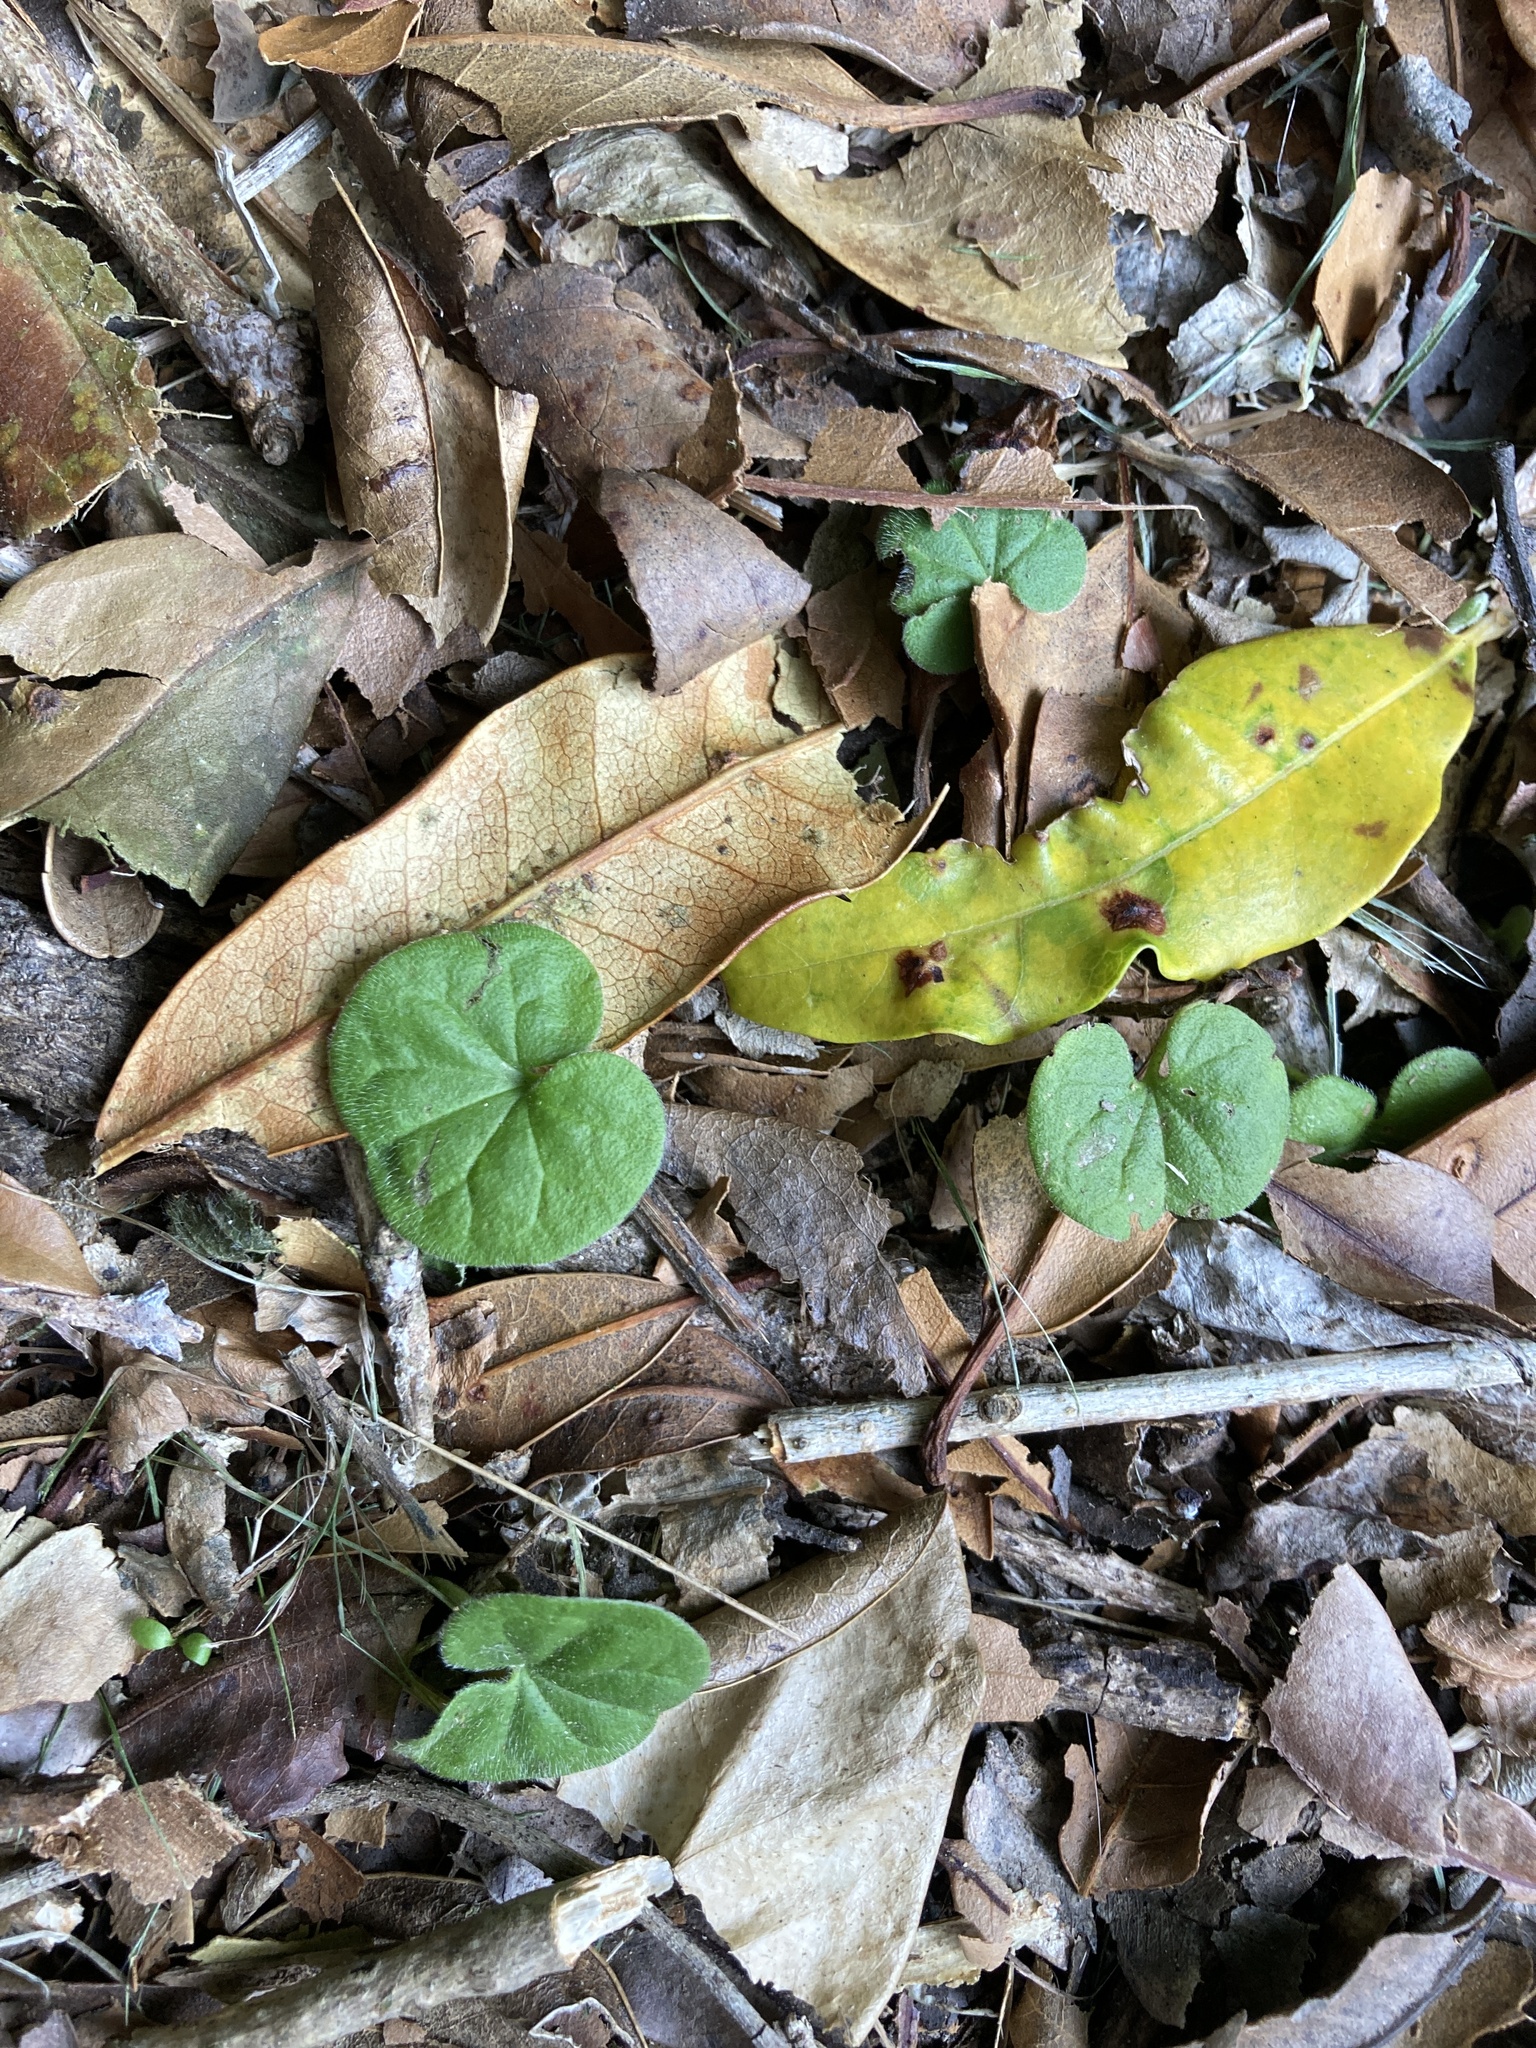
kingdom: Plantae
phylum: Tracheophyta
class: Magnoliopsida
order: Solanales
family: Convolvulaceae
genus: Dichondra
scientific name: Dichondra repens
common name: Kidneyweed
